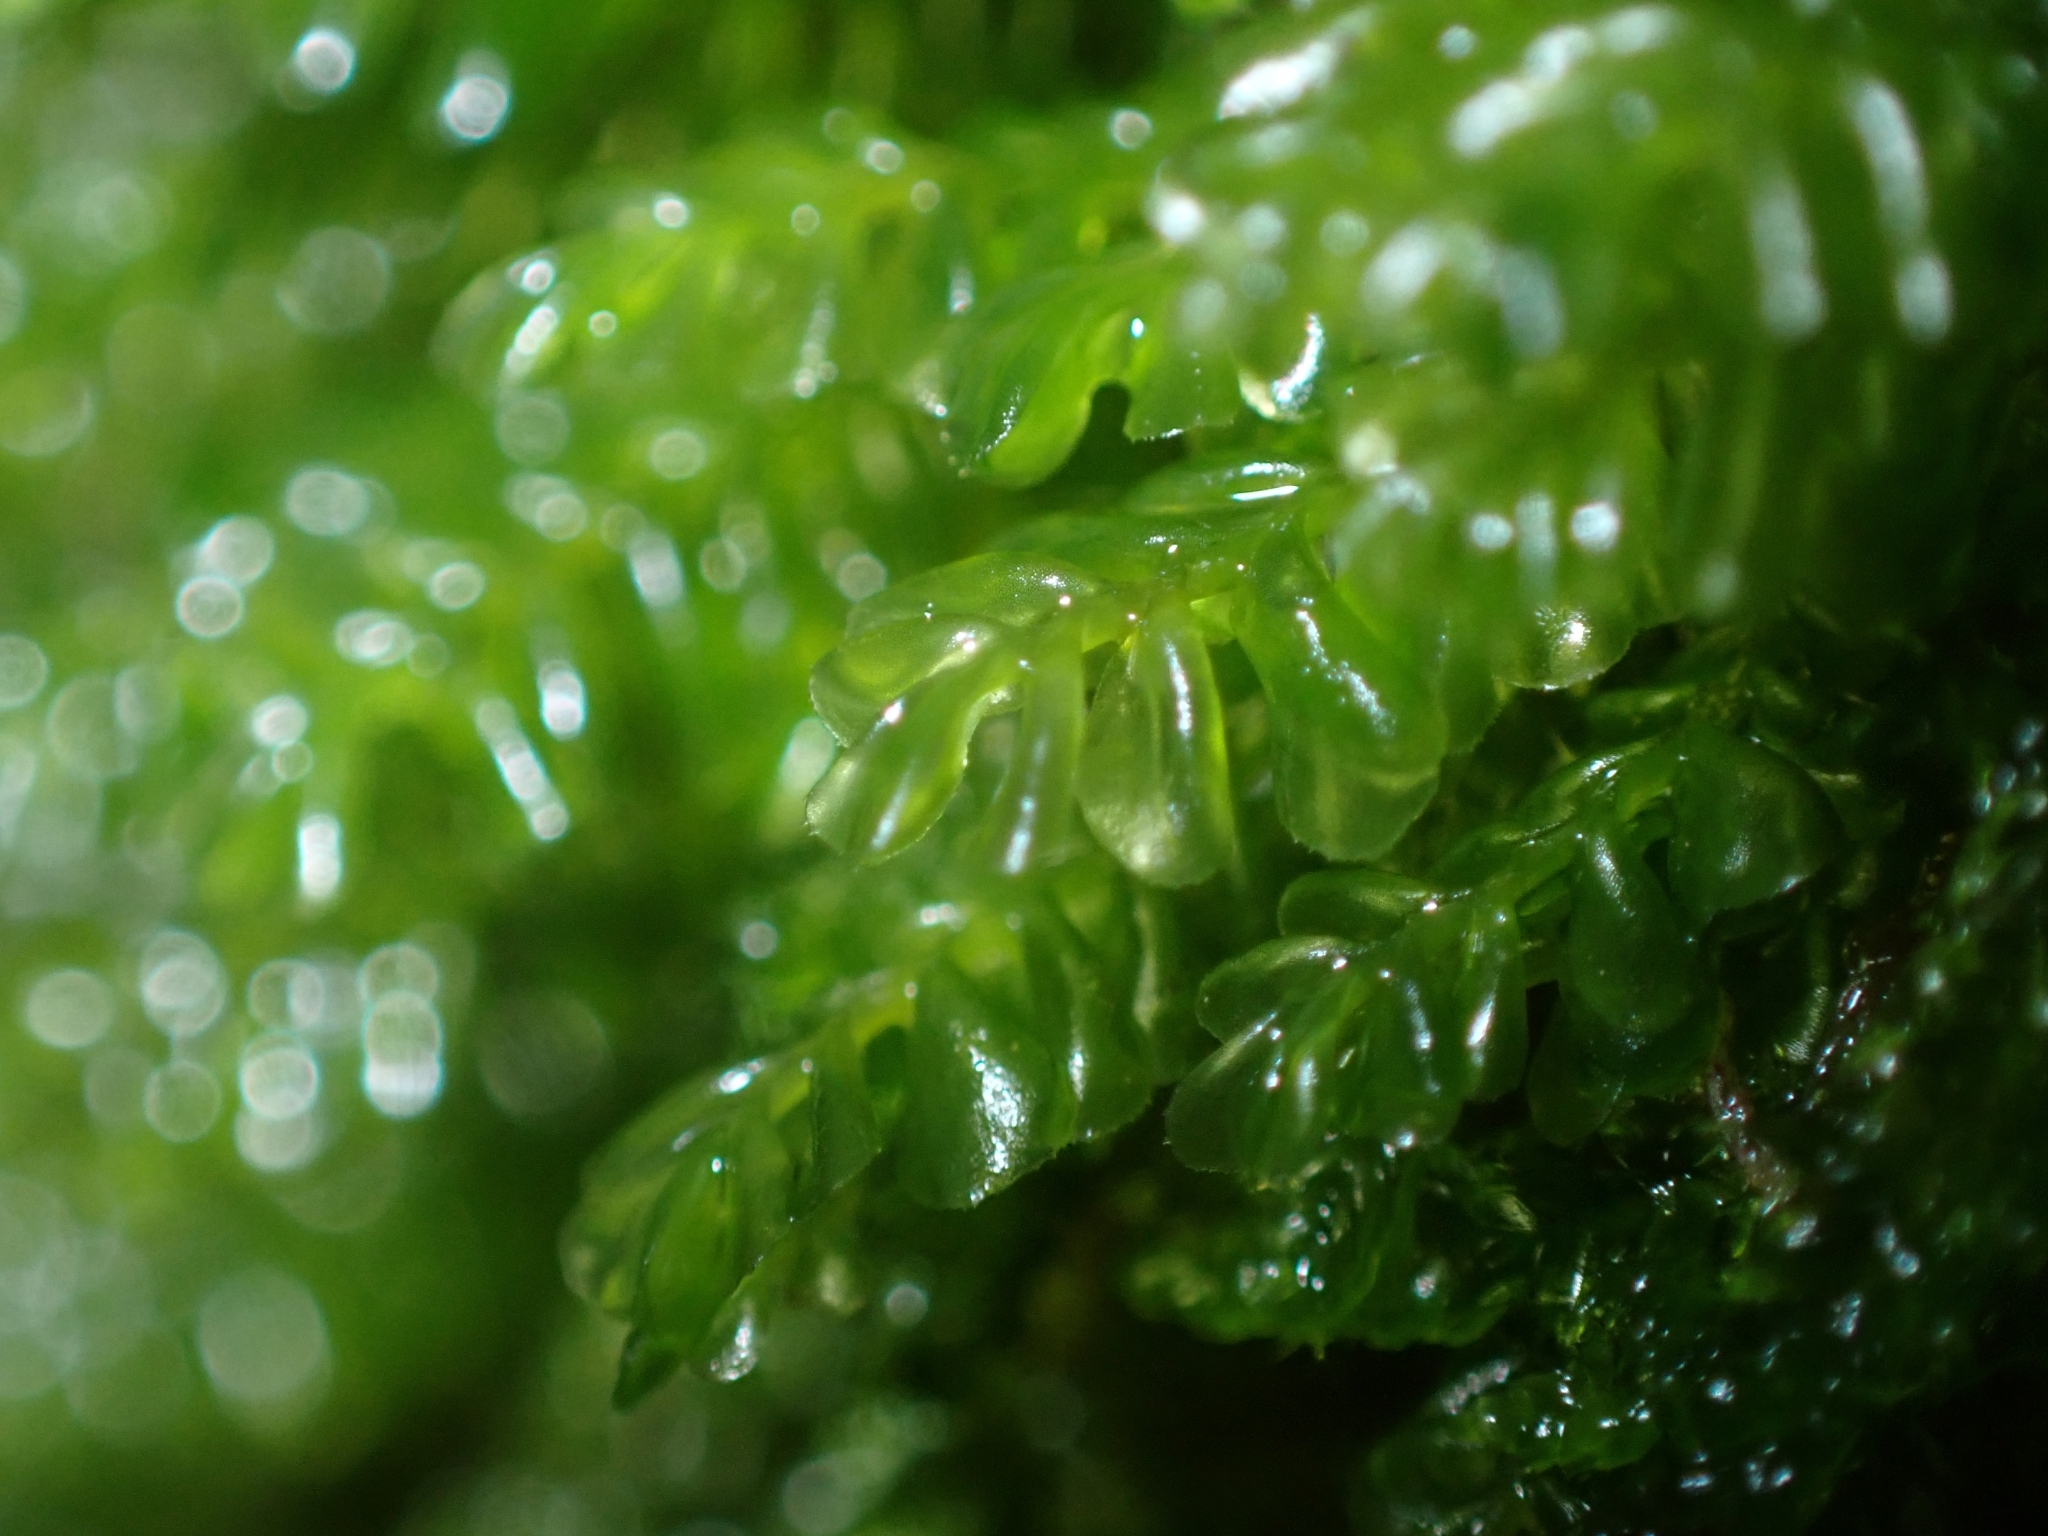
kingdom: Plantae
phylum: Marchantiophyta
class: Jungermanniopsida
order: Jungermanniales
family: Plagiochilaceae
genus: Plagiochila
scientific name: Plagiochila porelloides
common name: Lesser featherwort
